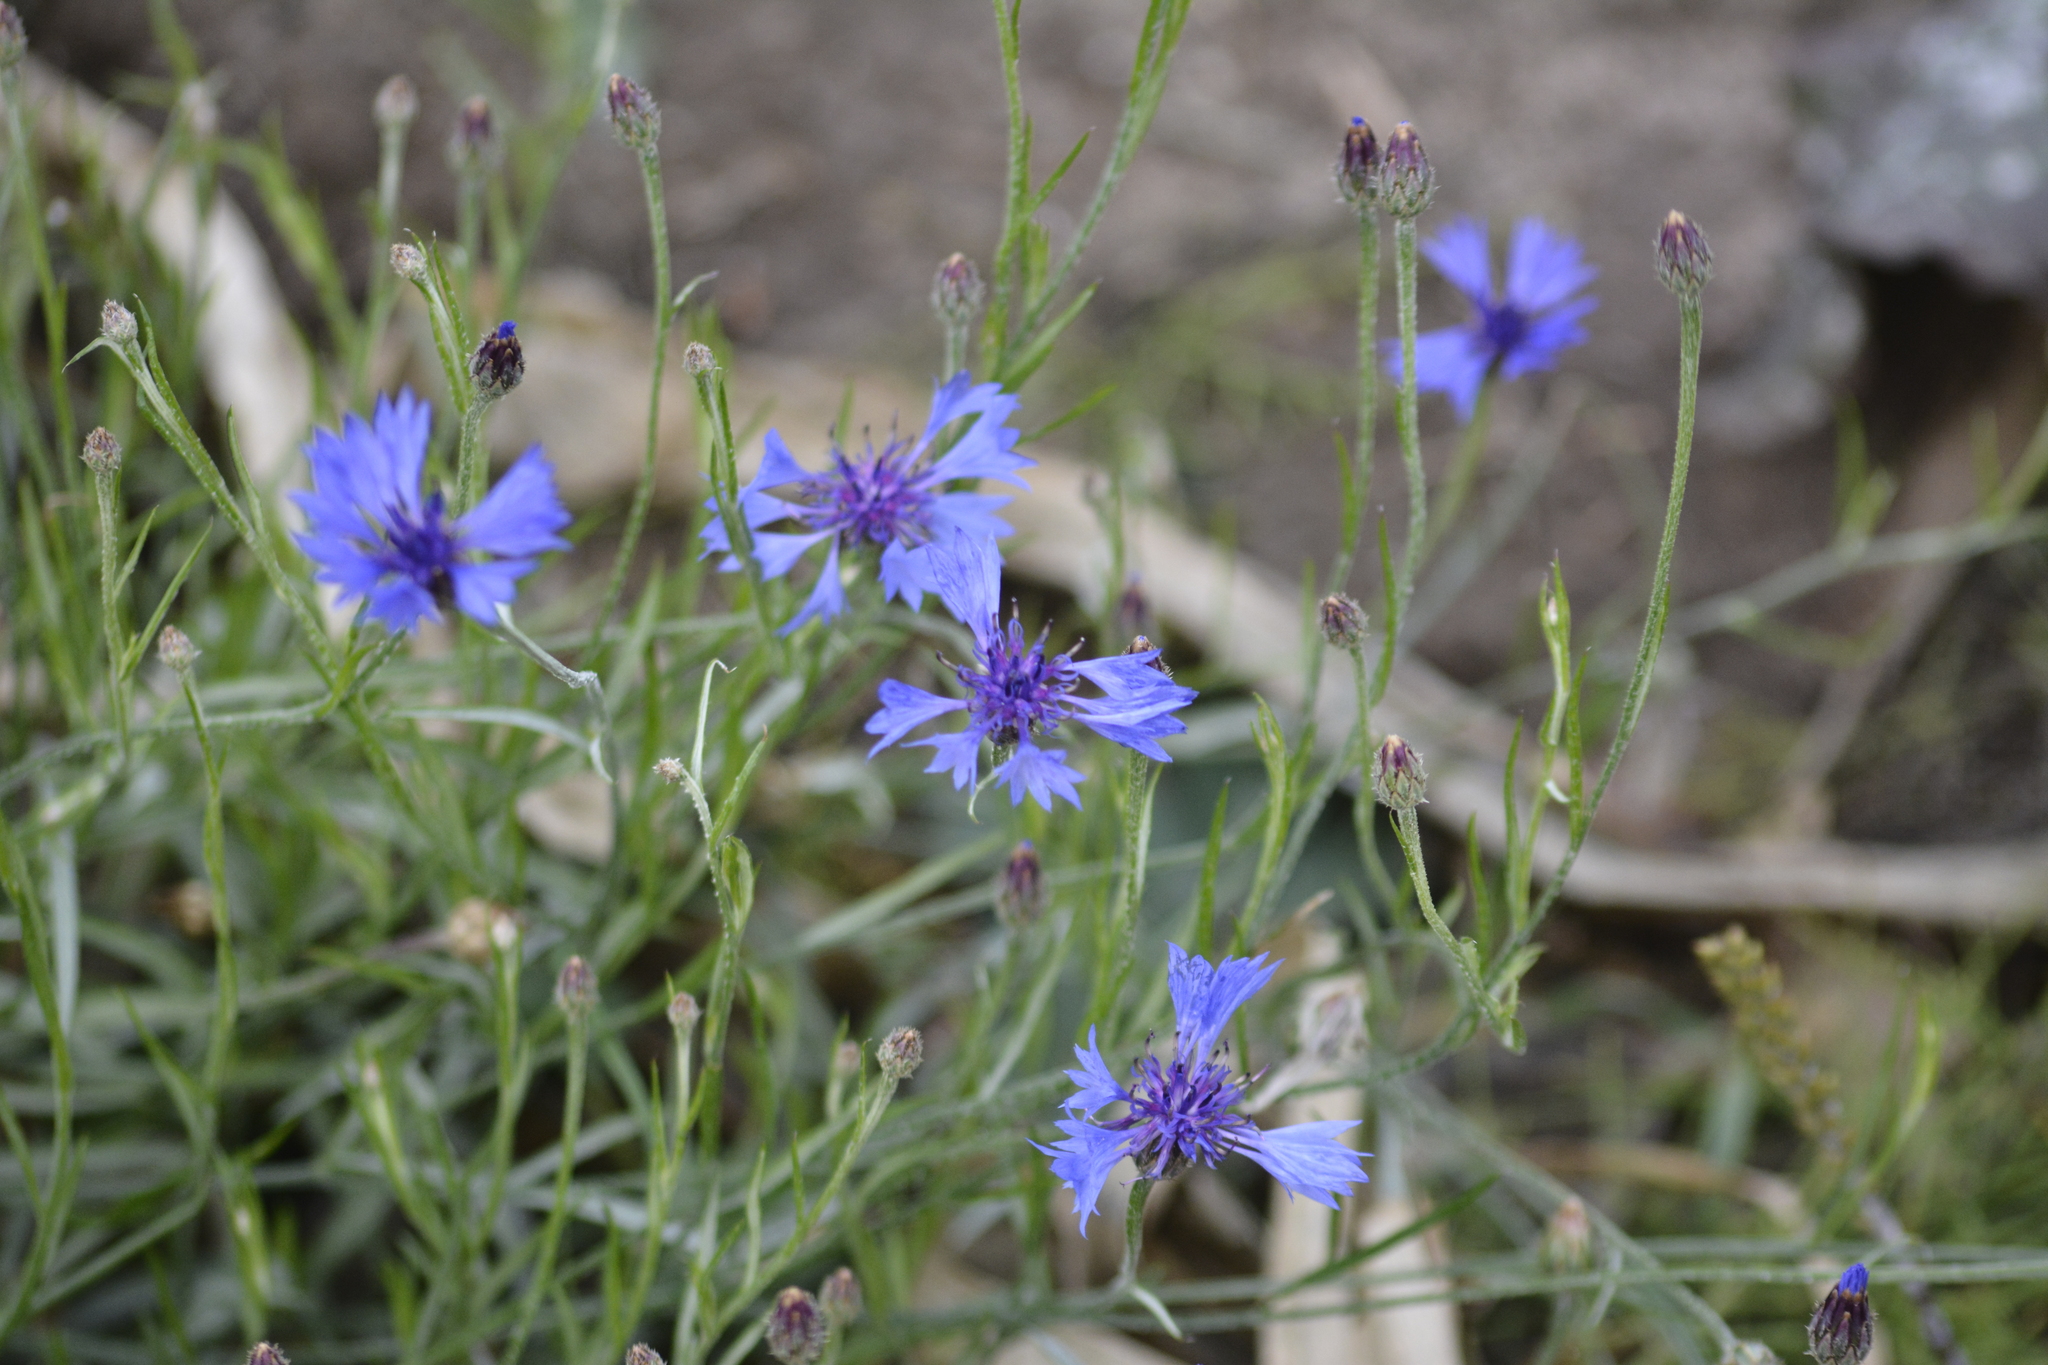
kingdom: Plantae
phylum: Tracheophyta
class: Magnoliopsida
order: Asterales
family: Asteraceae
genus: Centaurea
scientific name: Centaurea cyanus
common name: Cornflower
